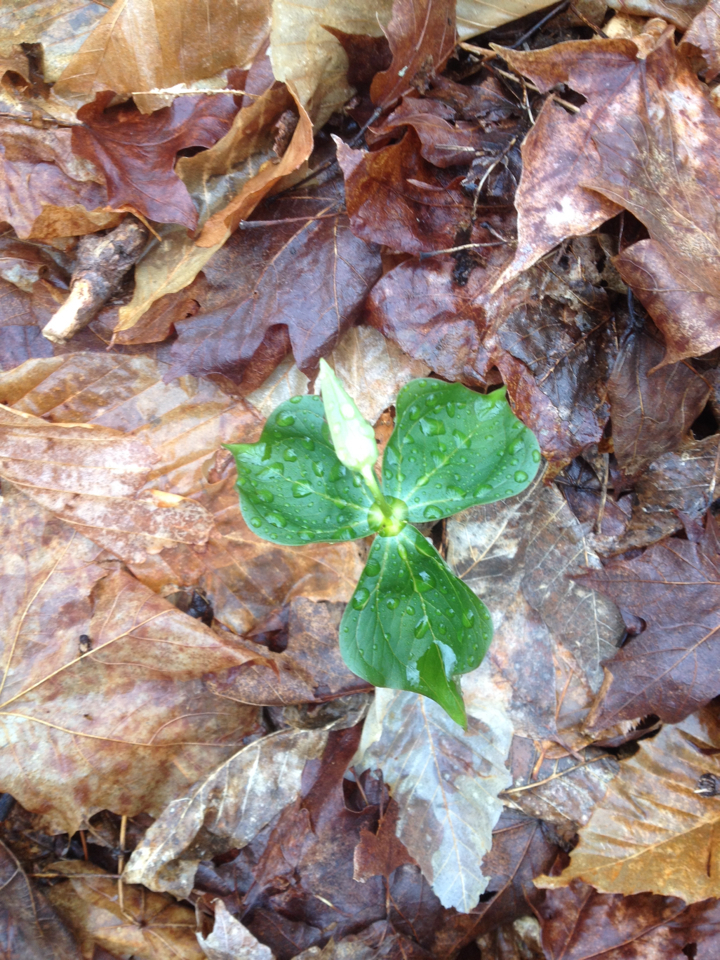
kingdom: Plantae
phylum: Tracheophyta
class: Liliopsida
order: Liliales
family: Melanthiaceae
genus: Trillium
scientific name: Trillium erectum
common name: Purple trillium
